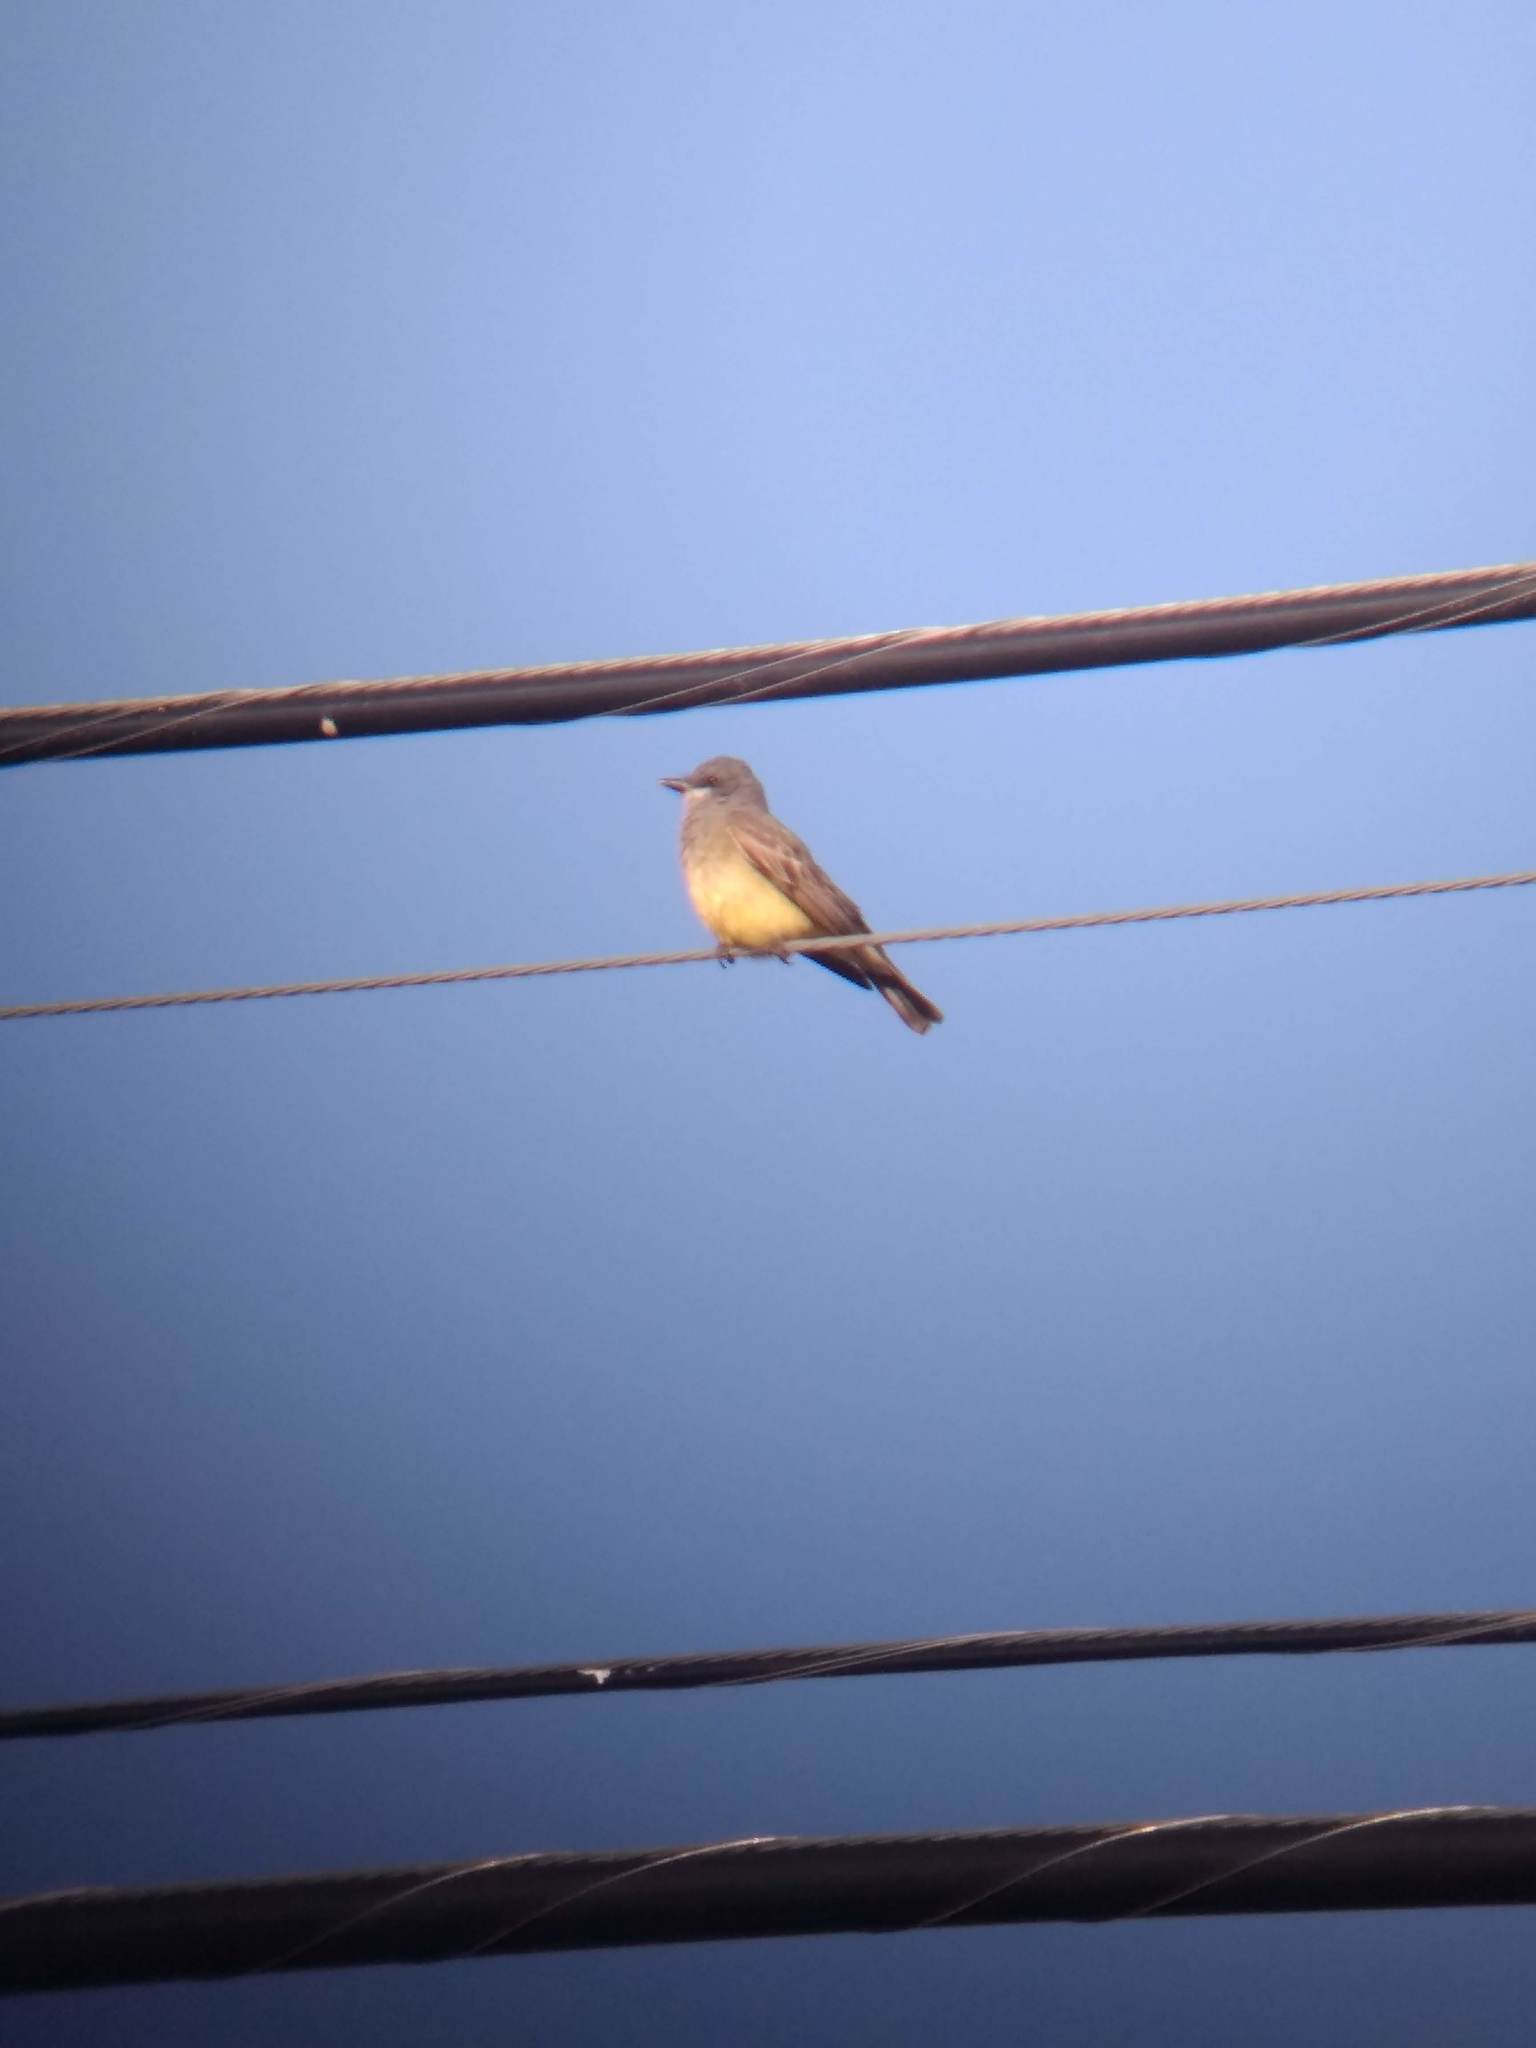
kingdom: Animalia
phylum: Chordata
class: Aves
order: Passeriformes
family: Tyrannidae
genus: Tyrannus
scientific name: Tyrannus vociferans
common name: Cassin's kingbird
